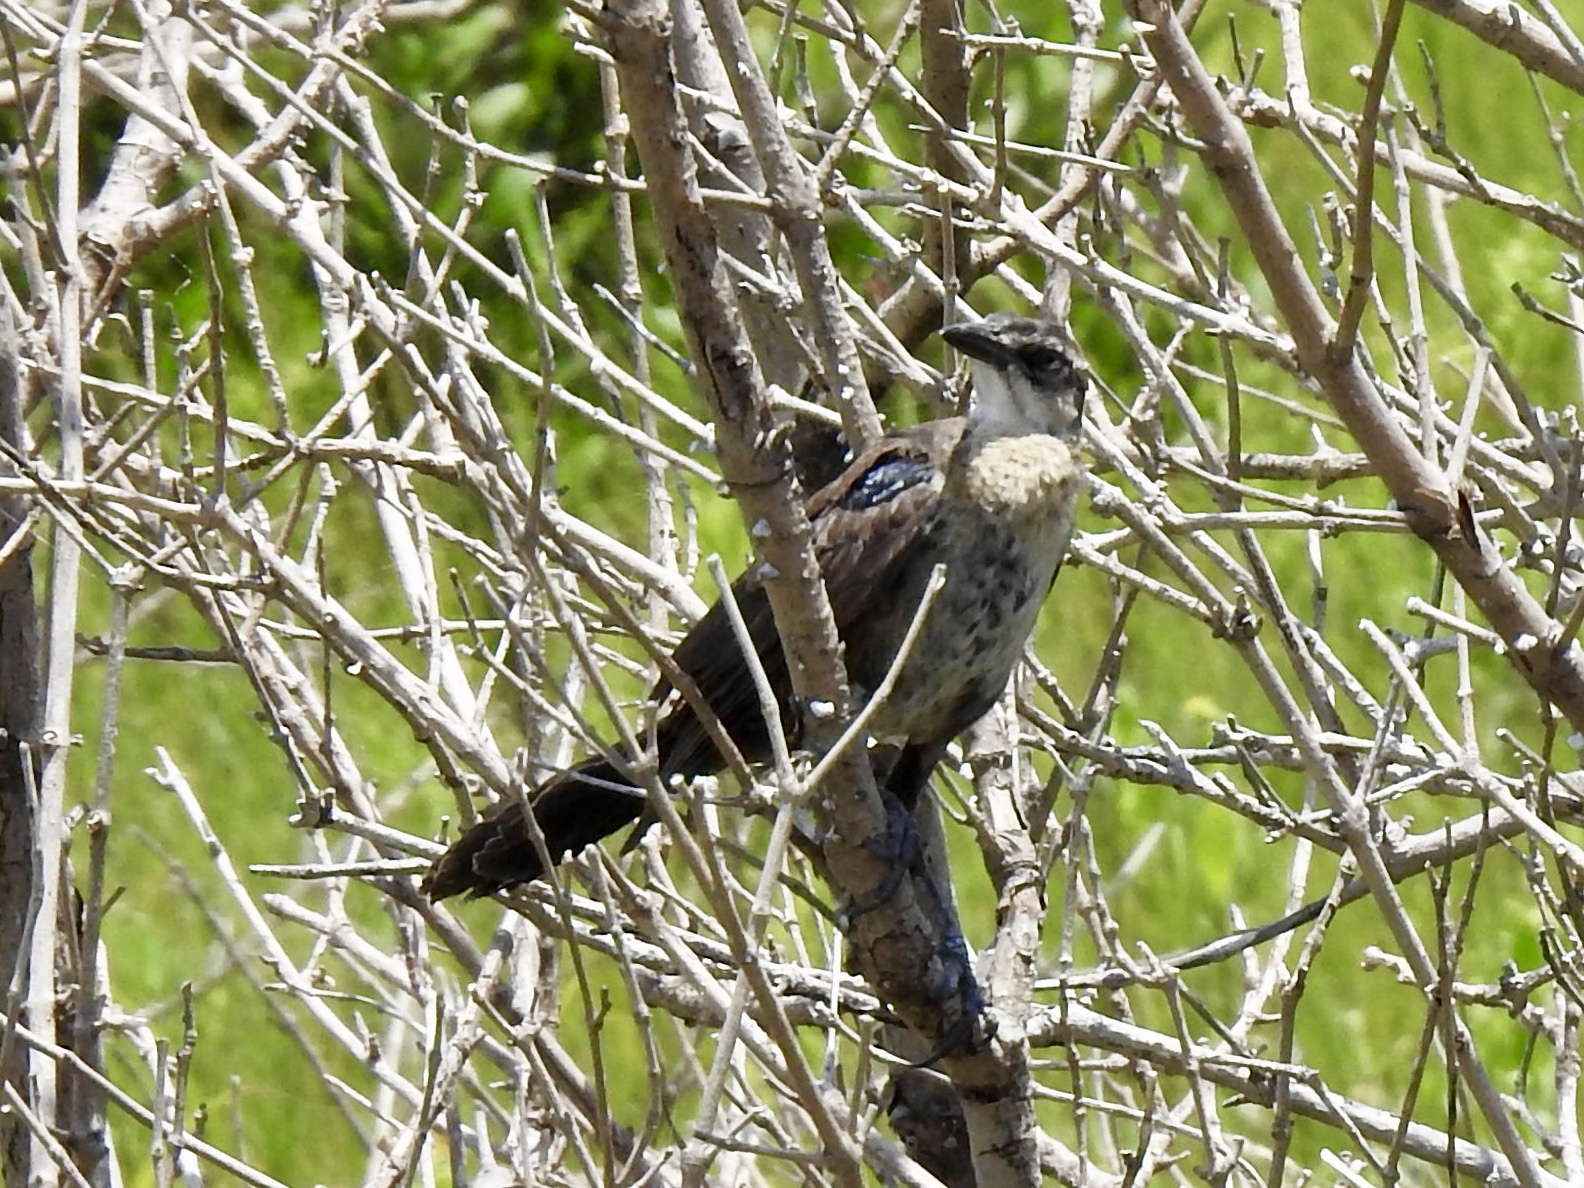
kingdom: Animalia
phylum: Chordata
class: Aves
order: Passeriformes
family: Icteridae
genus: Quiscalus
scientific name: Quiscalus mexicanus
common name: Great-tailed grackle
